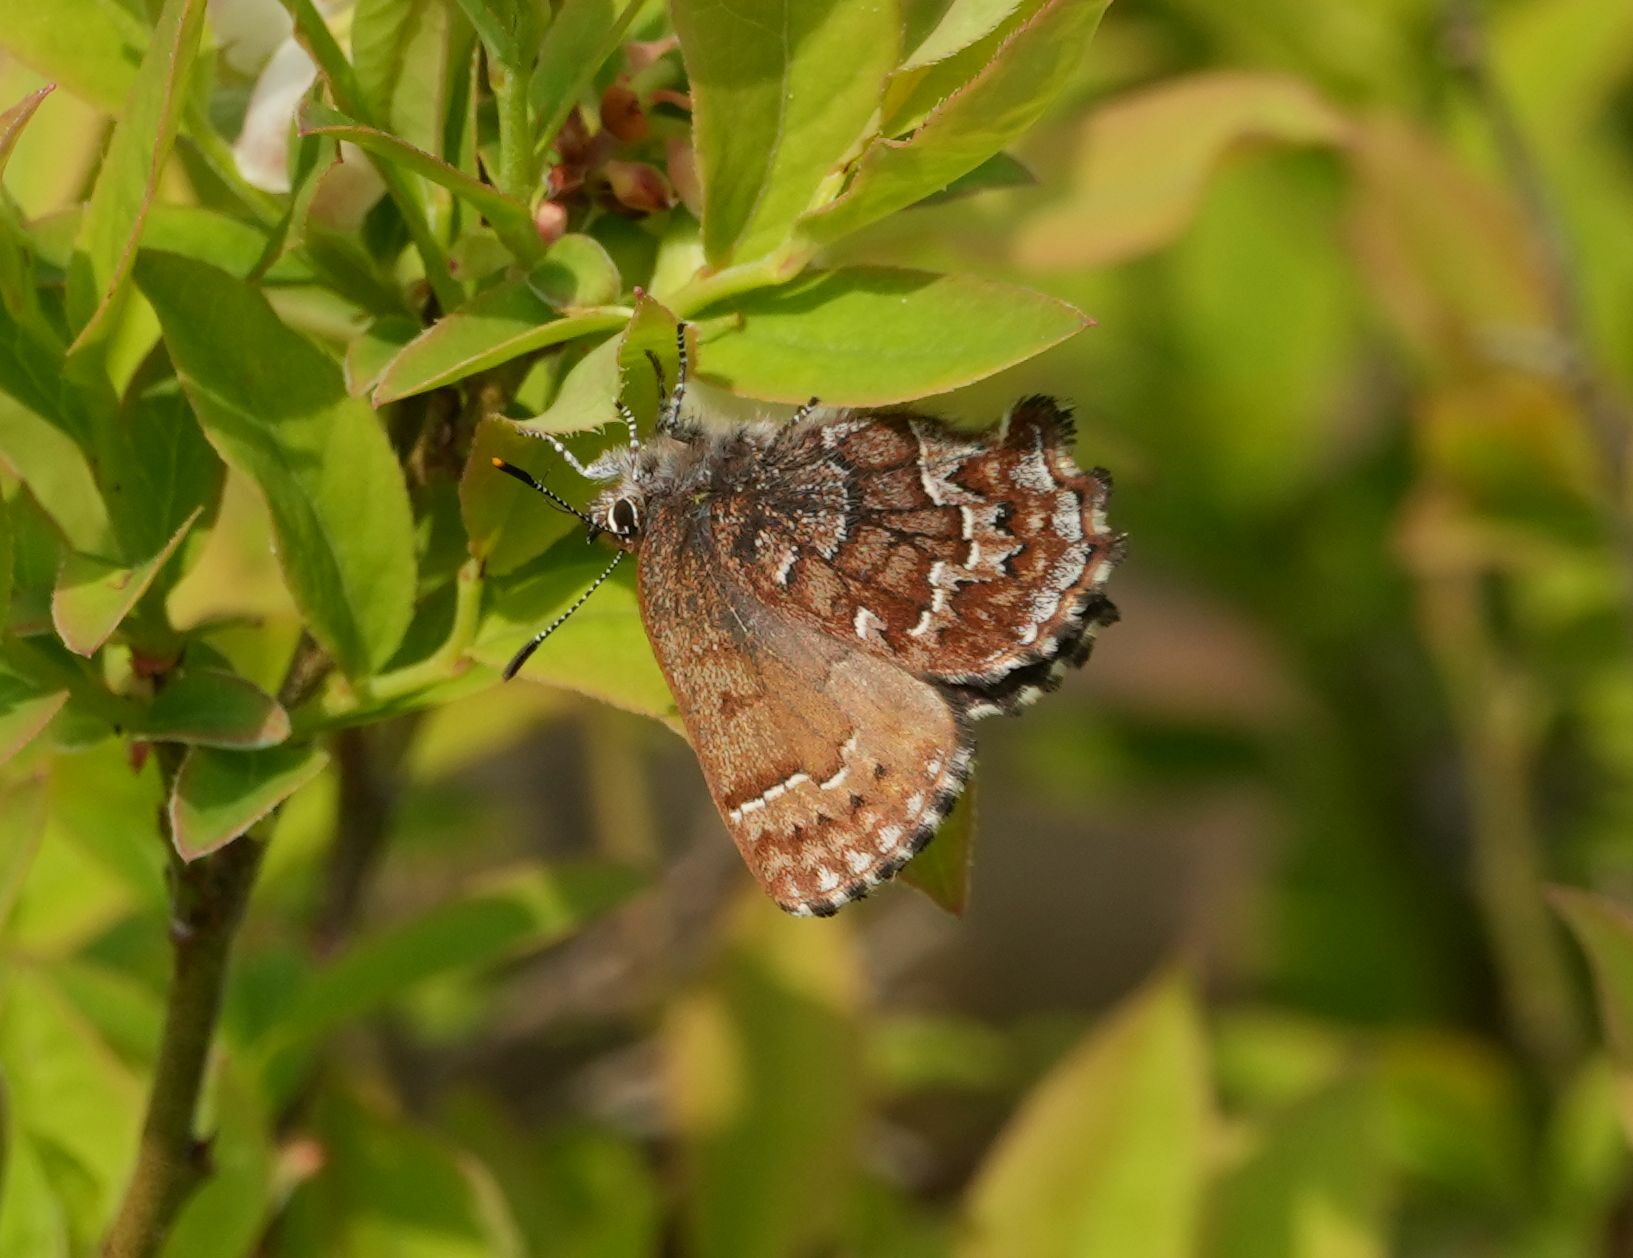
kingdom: Animalia
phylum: Arthropoda
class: Insecta
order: Lepidoptera
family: Lycaenidae
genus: Incisalia
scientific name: Incisalia niphon
